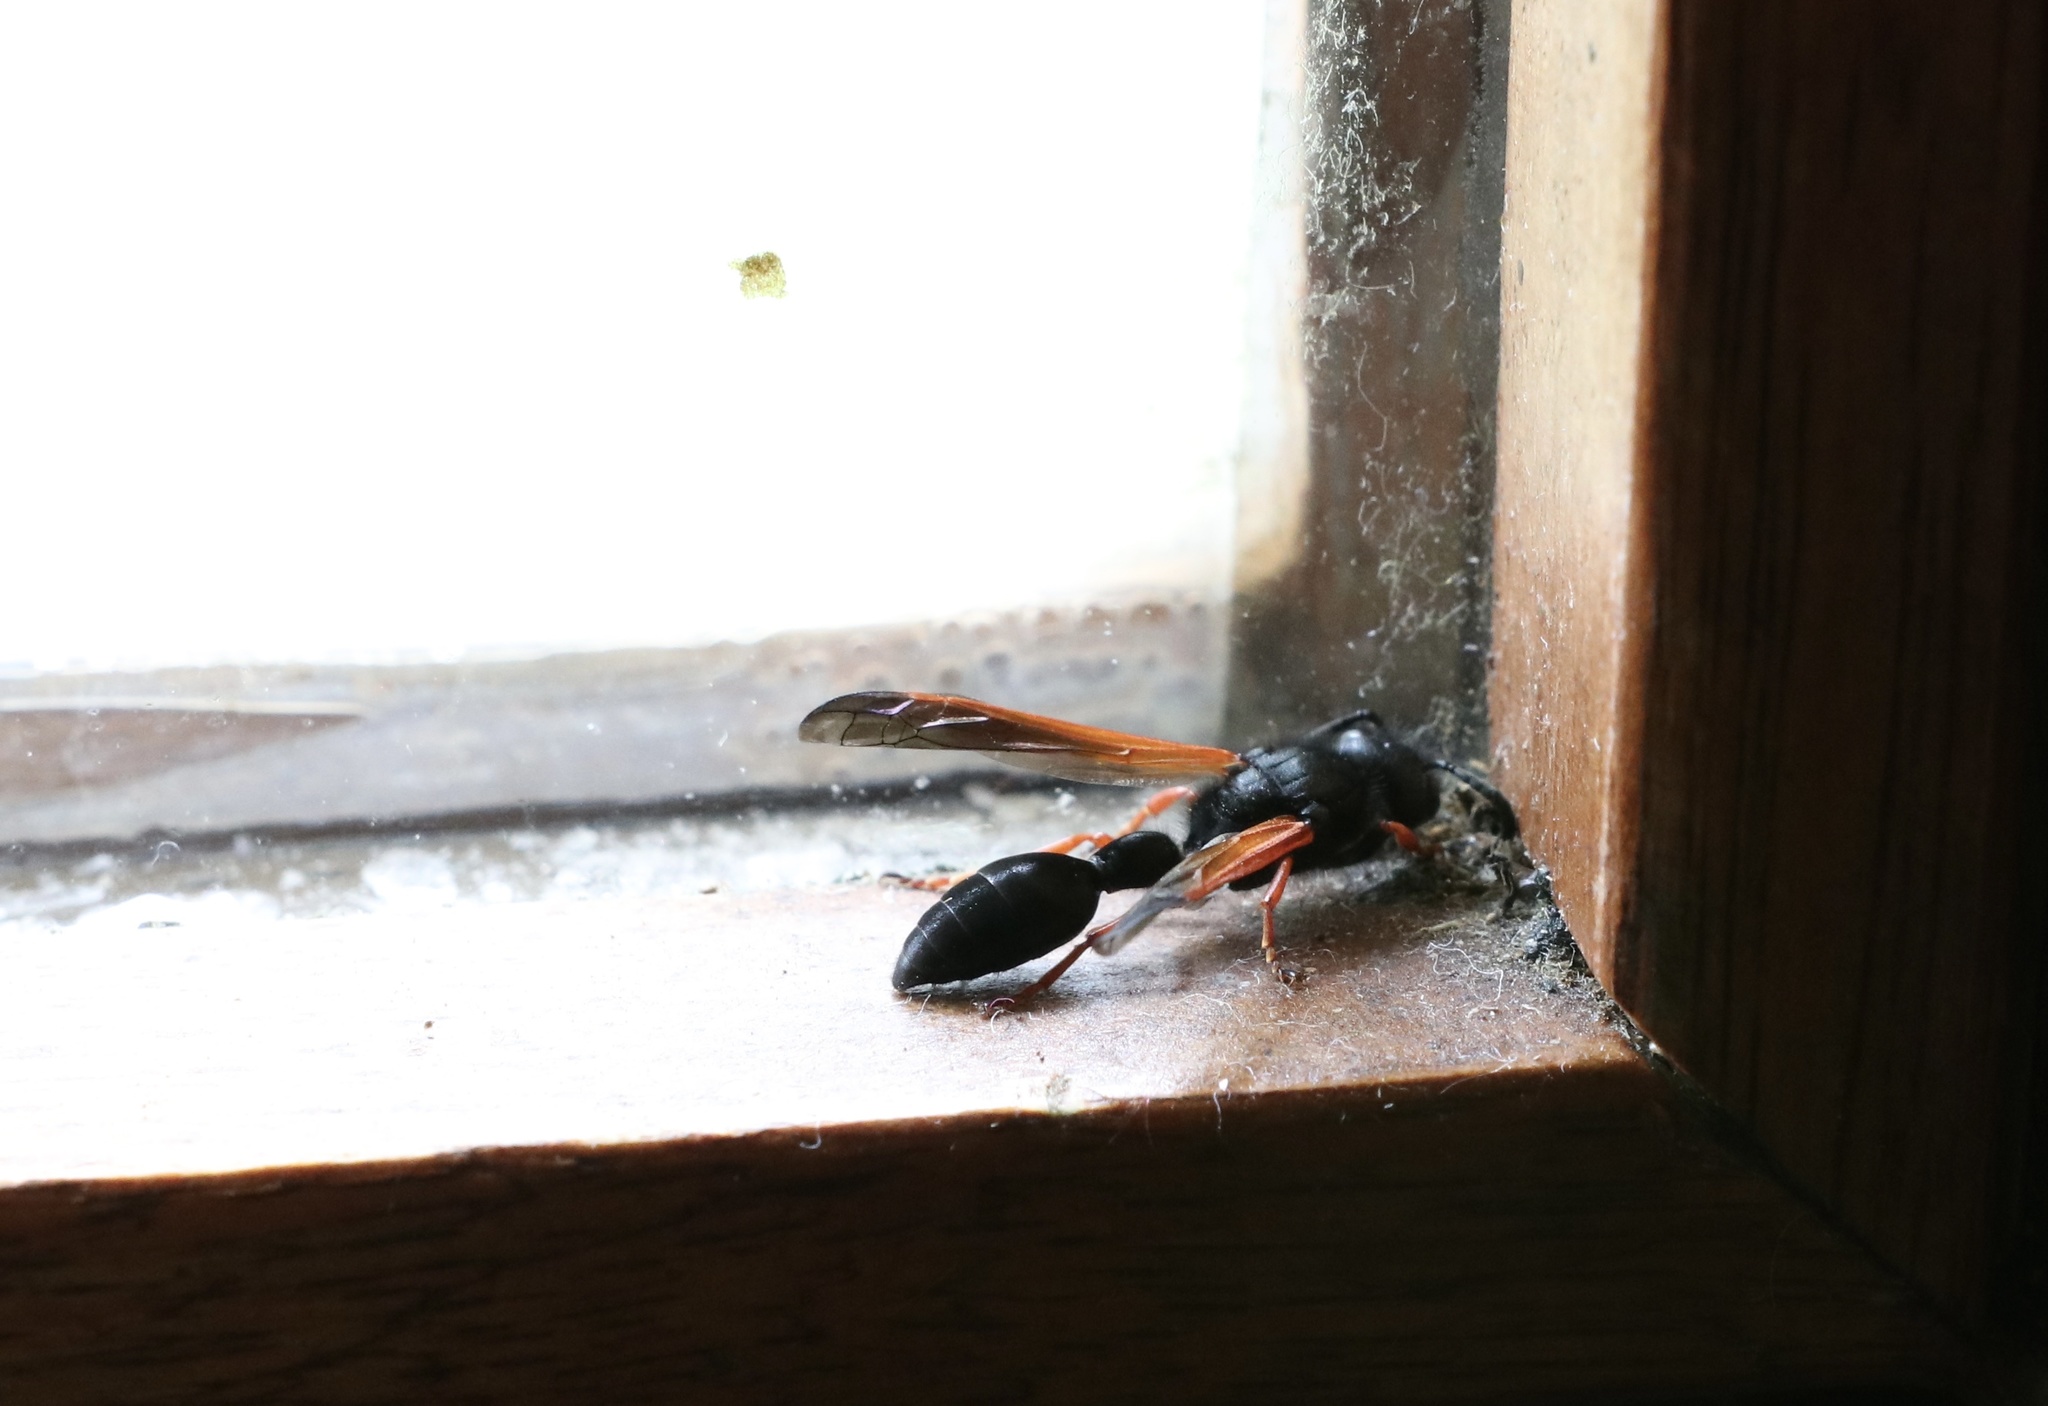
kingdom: Animalia
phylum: Arthropoda
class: Insecta
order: Hymenoptera
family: Eumenidae
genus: Protodiscoelius
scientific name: Protodiscoelius merula
